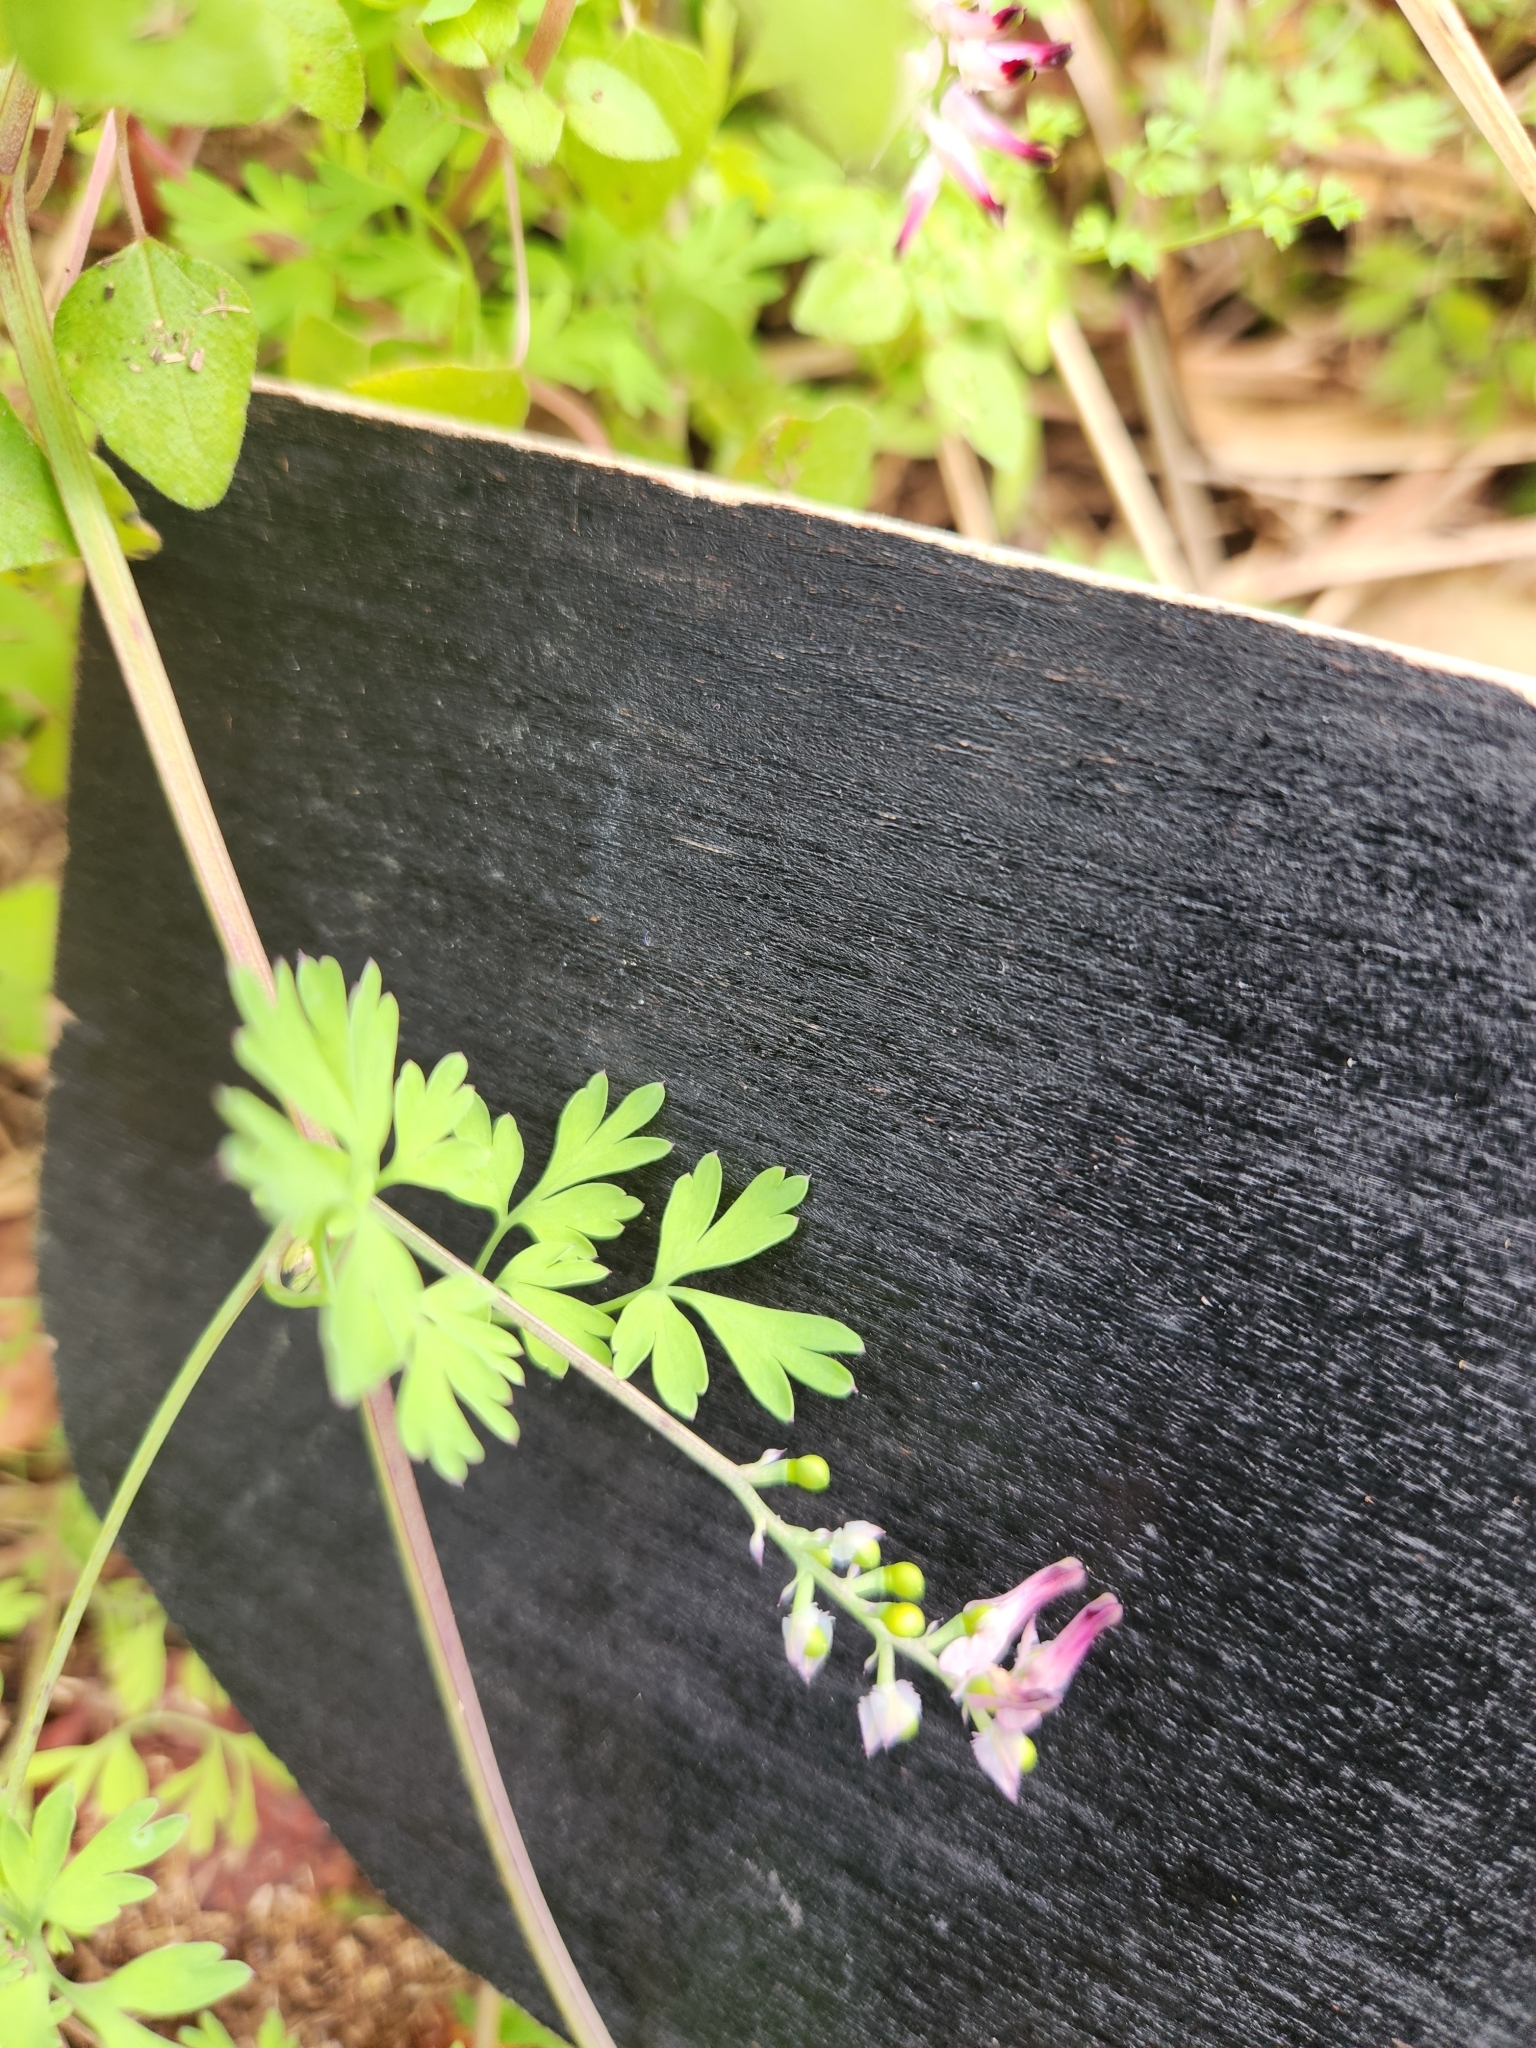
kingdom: Plantae
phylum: Tracheophyta
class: Magnoliopsida
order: Ranunculales
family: Papaveraceae
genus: Fumaria
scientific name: Fumaria muralis
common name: Common ramping-fumitory
